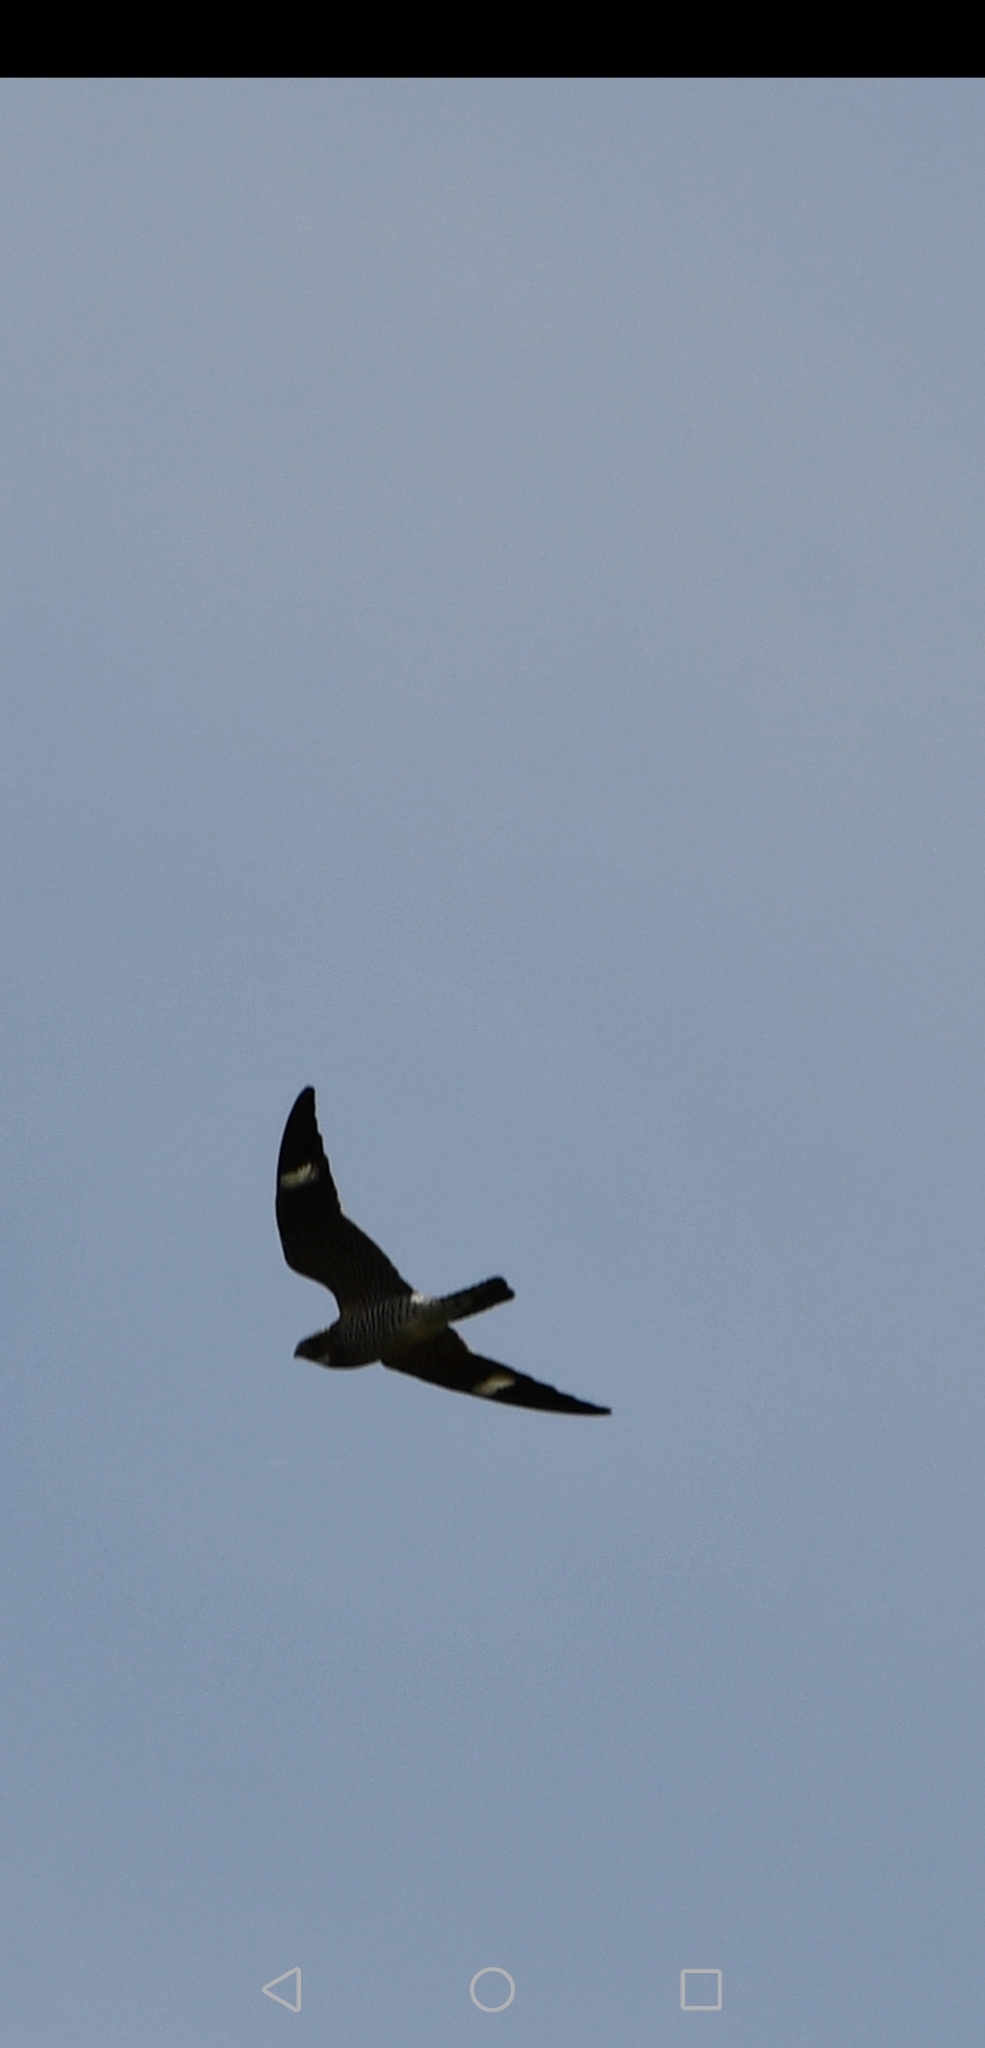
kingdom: Animalia
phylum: Chordata
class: Aves
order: Caprimulgiformes
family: Caprimulgidae
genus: Chordeiles
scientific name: Chordeiles minor
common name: Common nighthawk
